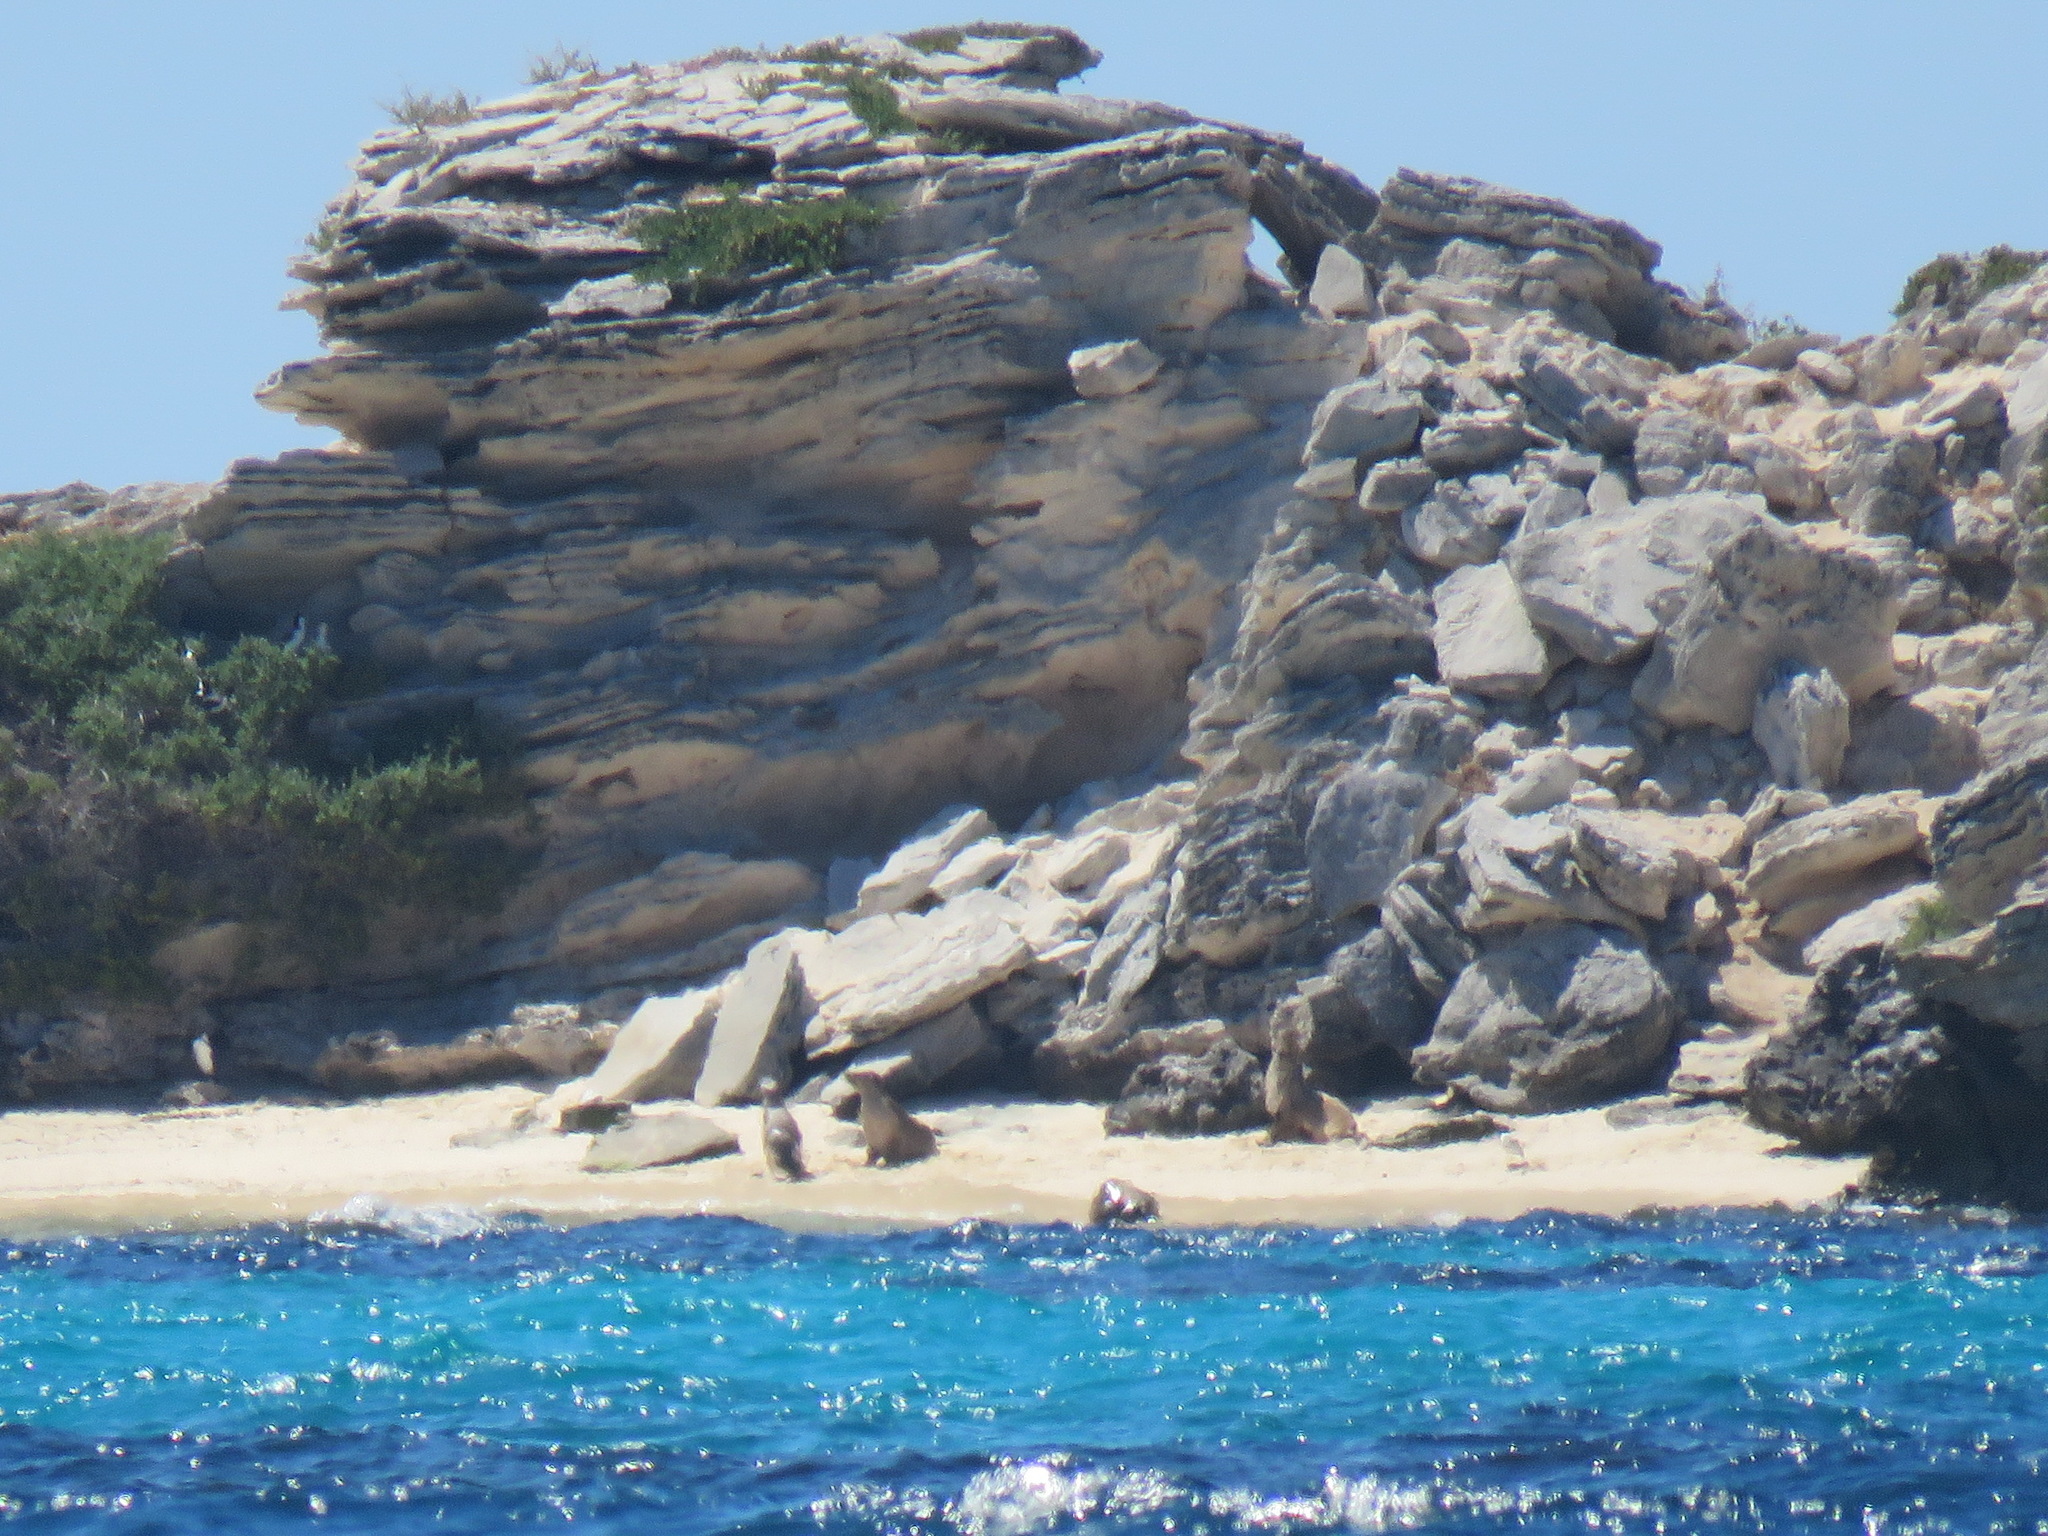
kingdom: Animalia
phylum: Chordata
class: Mammalia
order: Carnivora
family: Otariidae
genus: Neophoca
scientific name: Neophoca cinerea
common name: Australian sea lion
